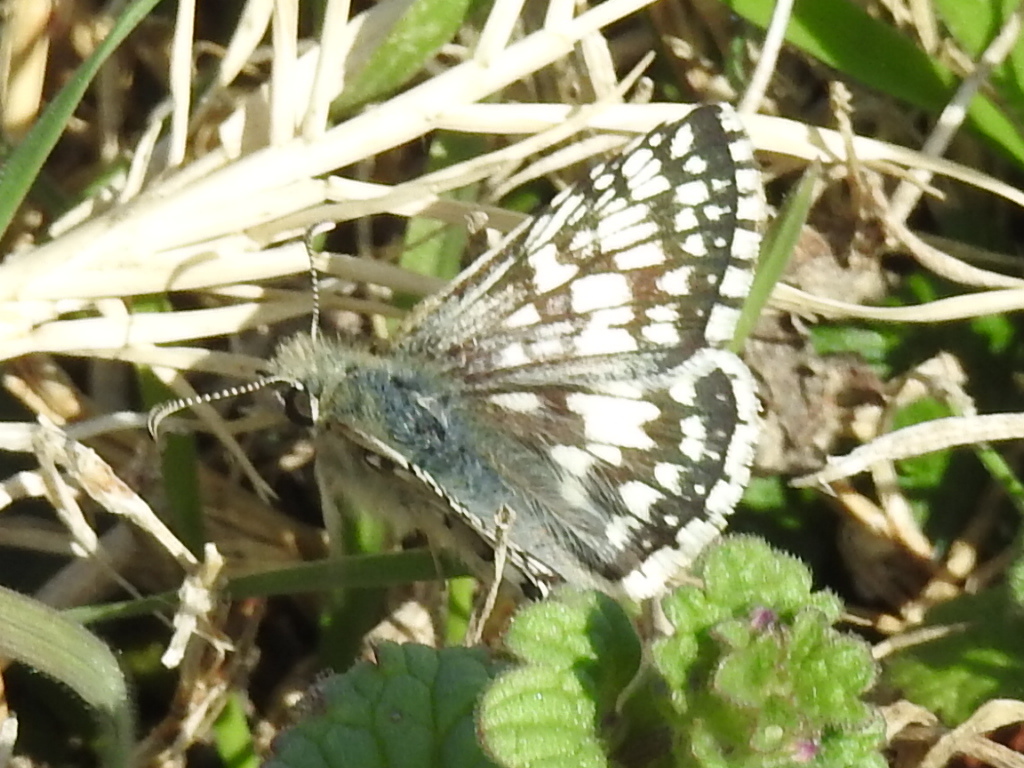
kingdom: Animalia
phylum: Arthropoda
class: Insecta
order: Lepidoptera
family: Hesperiidae
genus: Burnsius
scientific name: Burnsius
